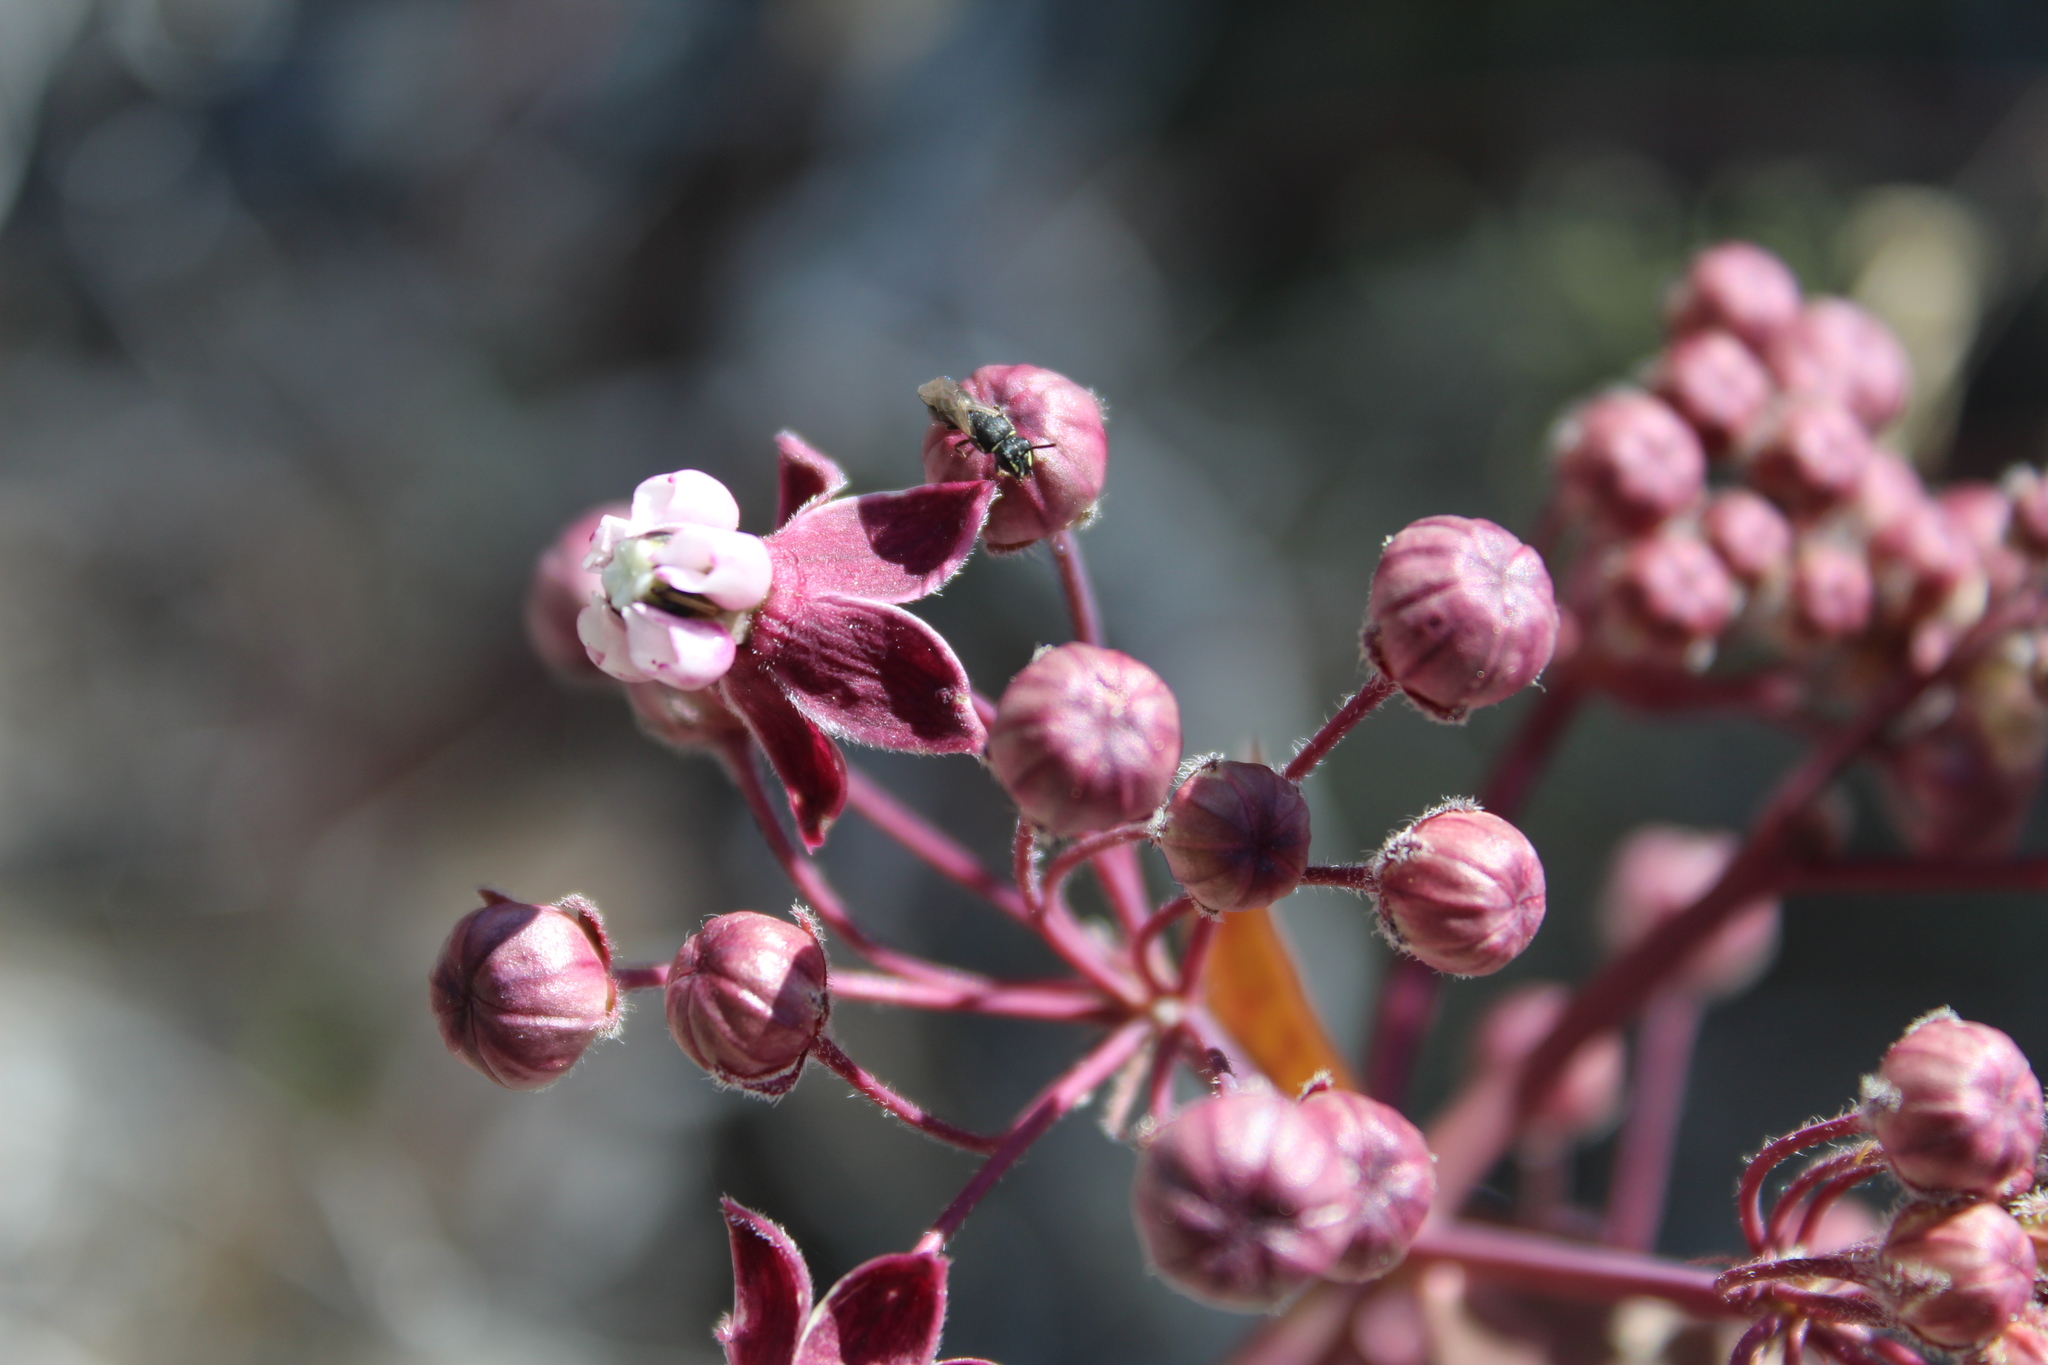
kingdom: Plantae
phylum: Tracheophyta
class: Magnoliopsida
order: Gentianales
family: Apocynaceae
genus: Asclepias
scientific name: Asclepias cordifolia
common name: Purple milkweed
